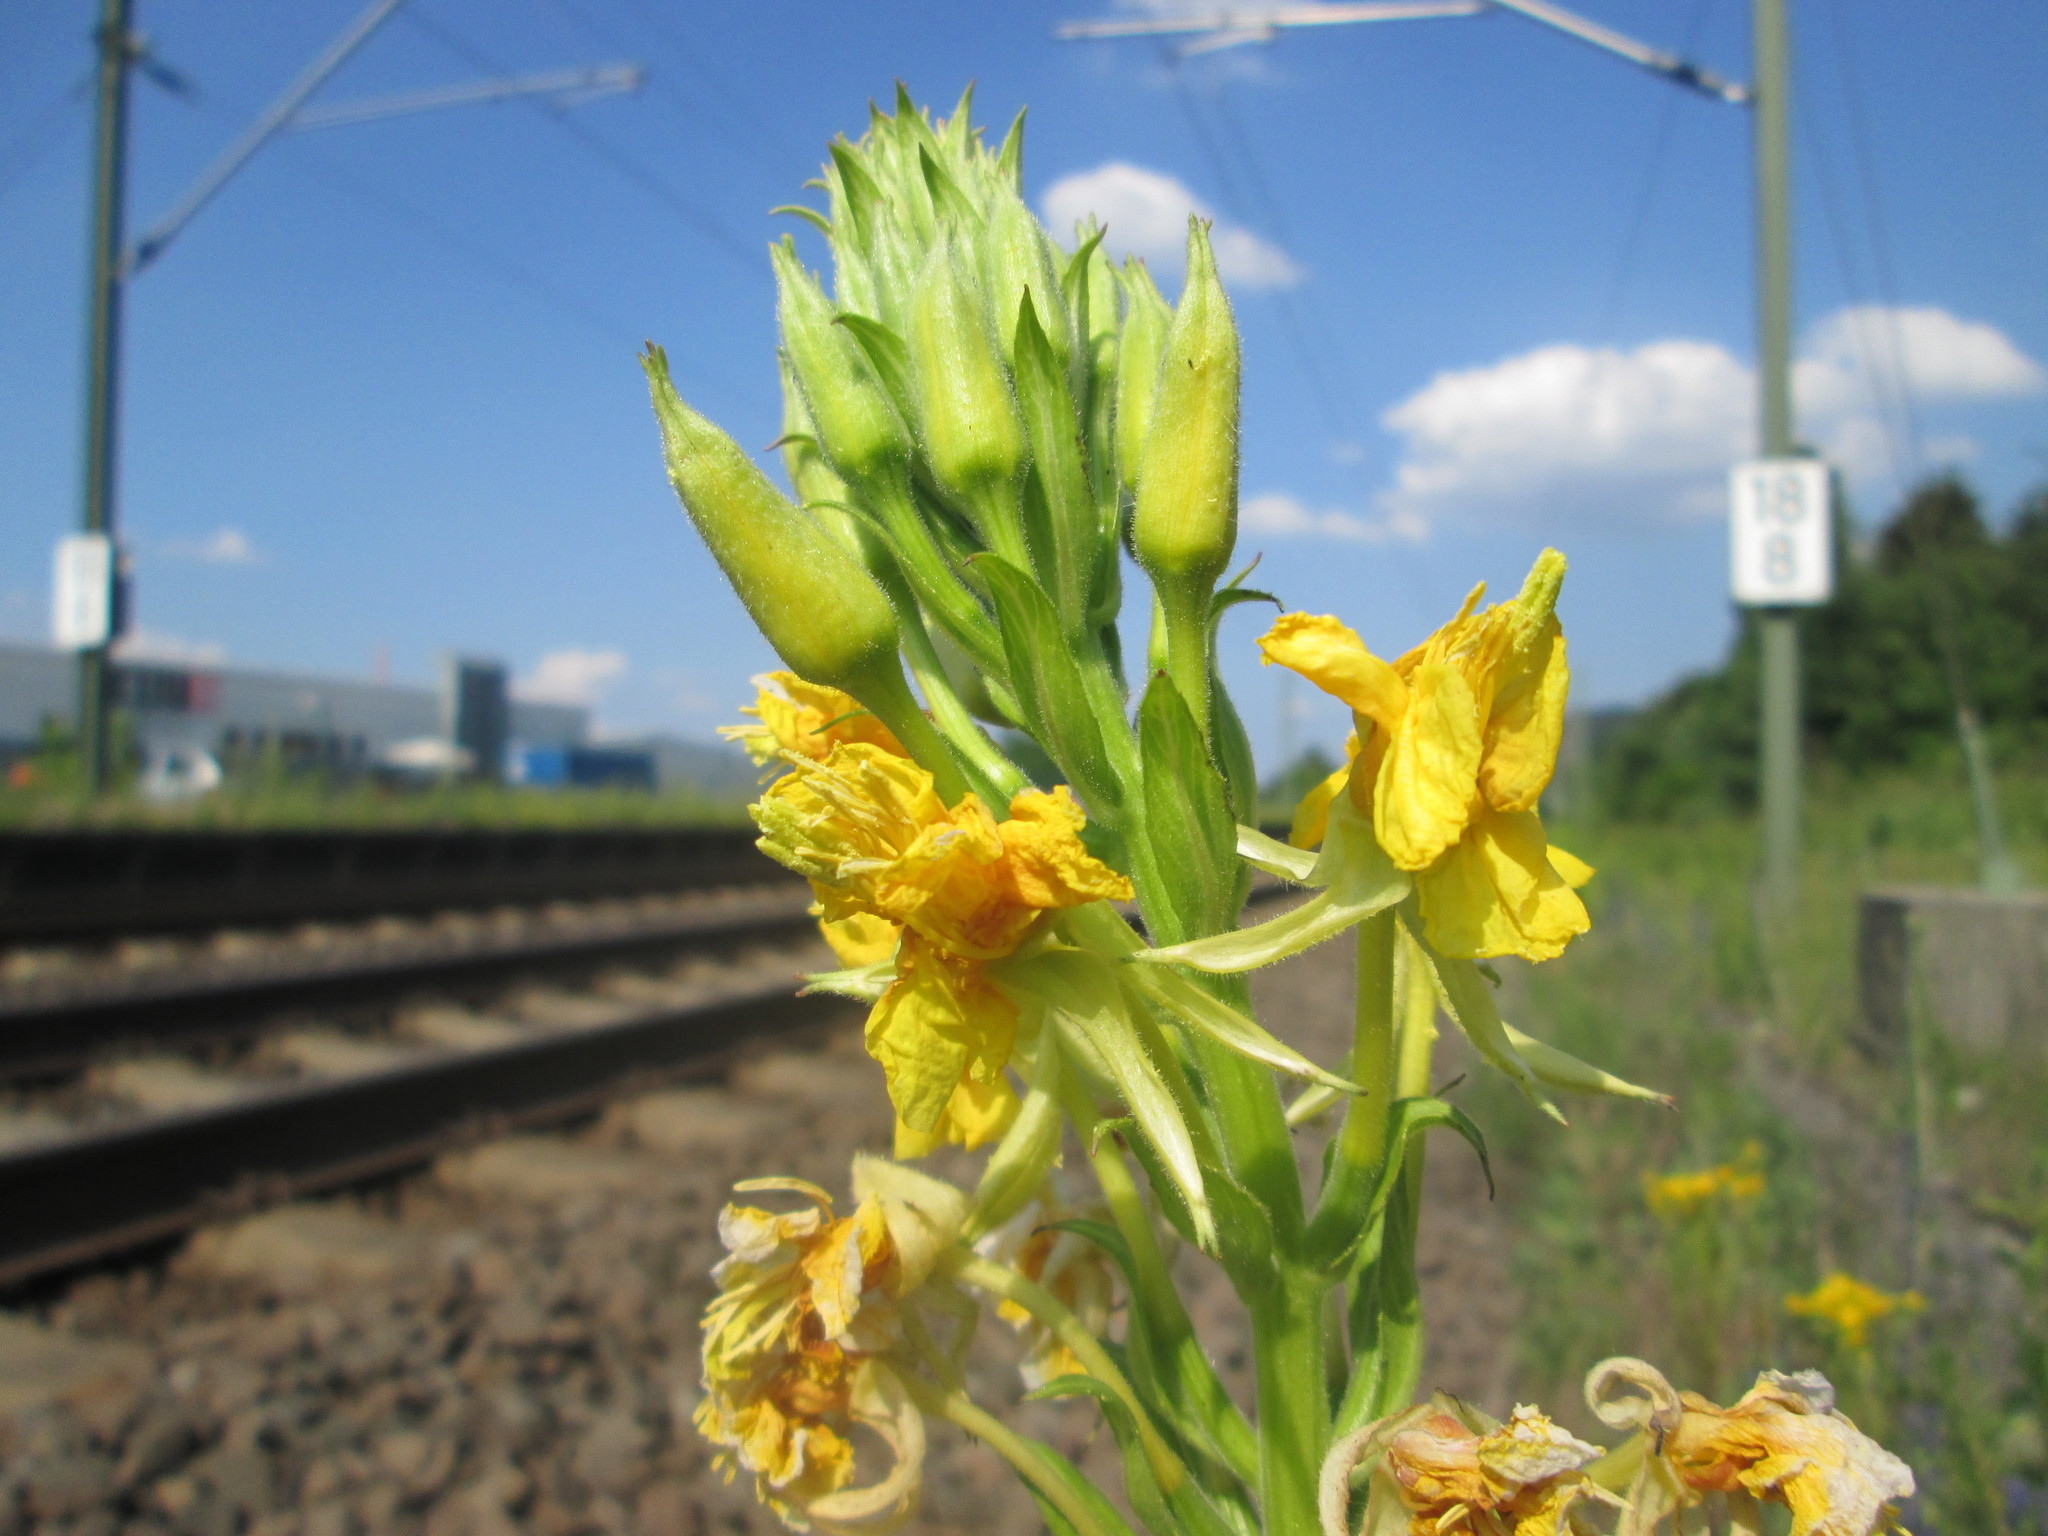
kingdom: Plantae
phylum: Tracheophyta
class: Magnoliopsida
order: Myrtales
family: Onagraceae
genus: Oenothera
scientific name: Oenothera biennis
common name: Common evening-primrose
